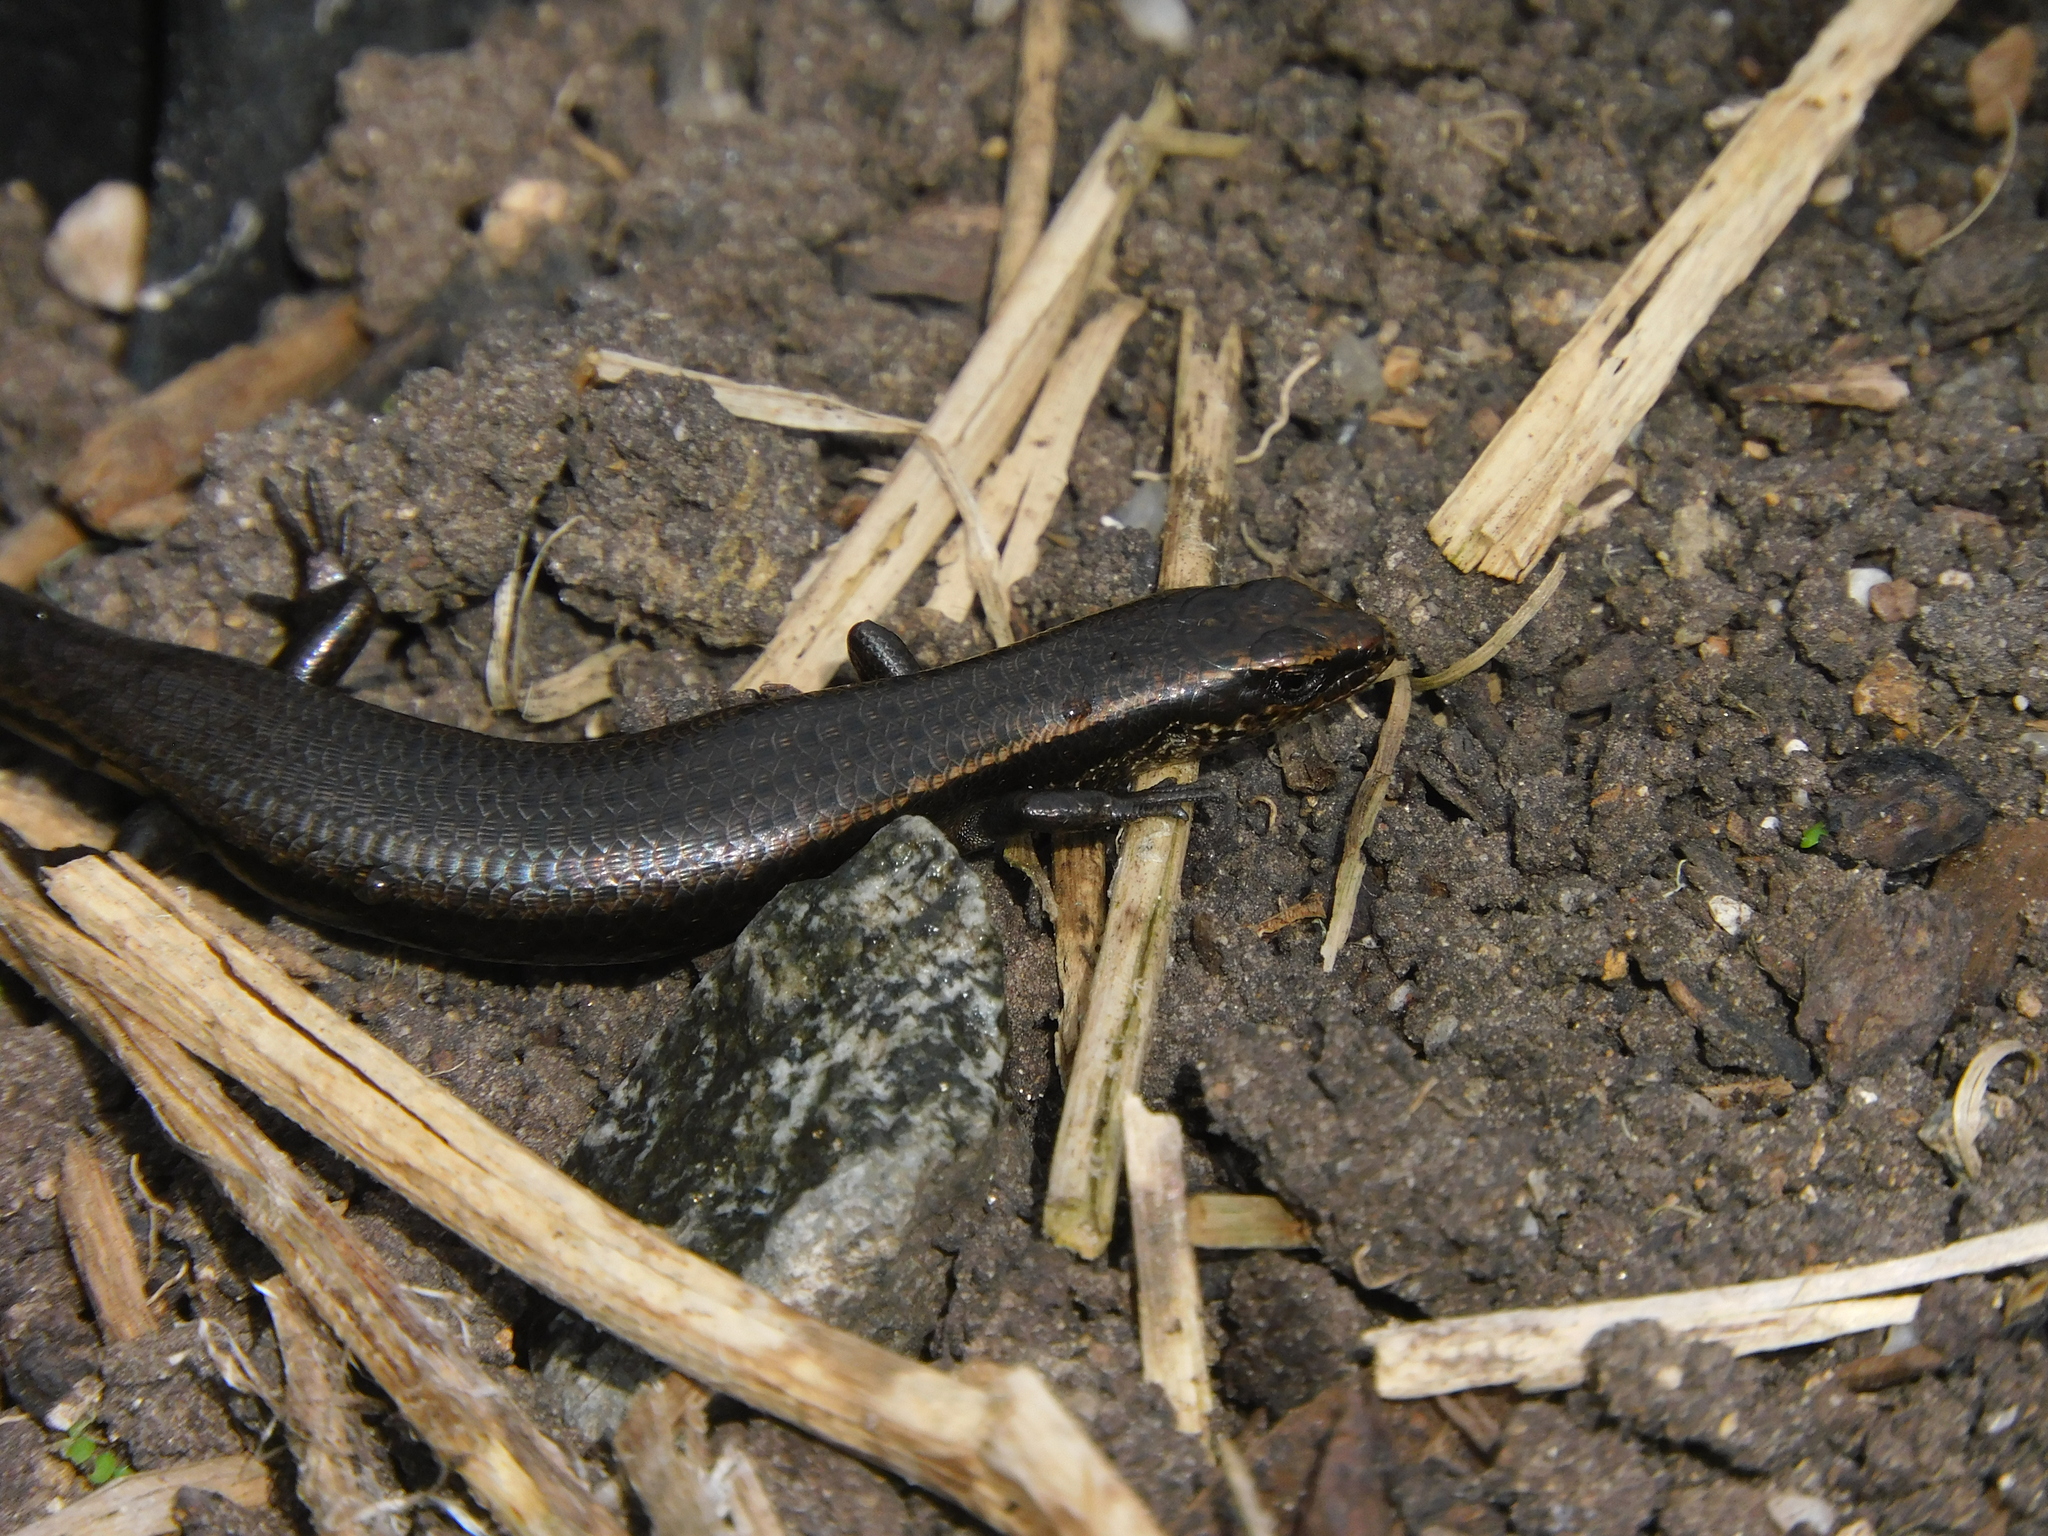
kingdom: Animalia
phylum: Chordata
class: Squamata
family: Scincidae
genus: Carinascincus
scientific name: Carinascincus metallicus
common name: Metallic cool-skink
